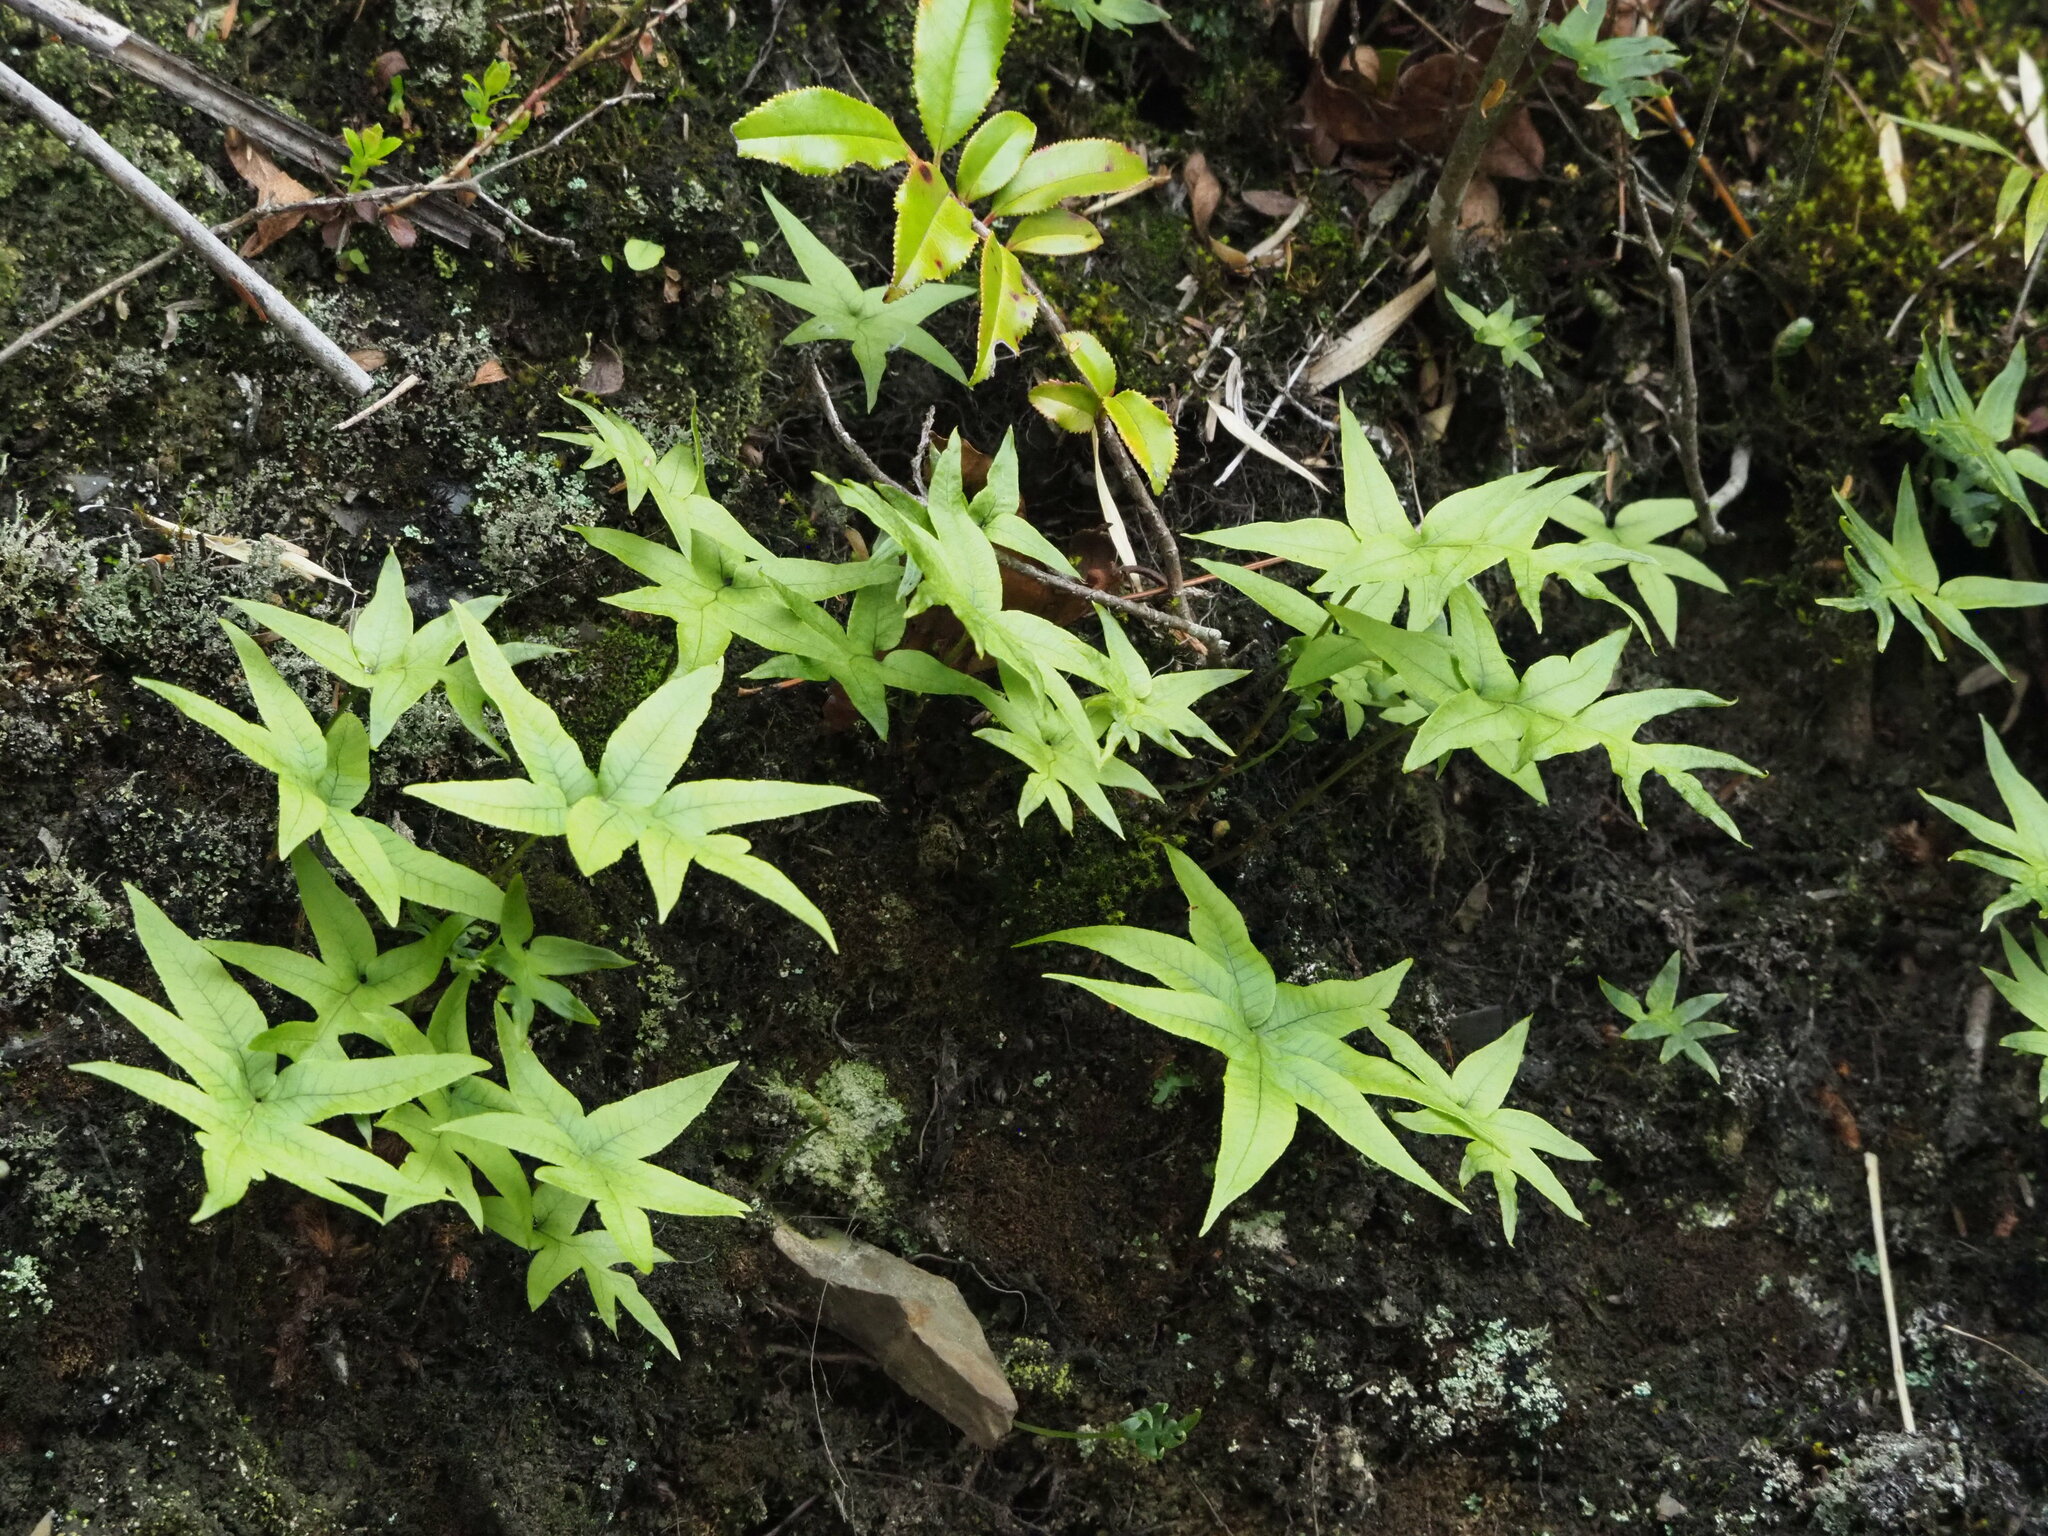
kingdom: Plantae
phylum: Tracheophyta
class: Polypodiopsida
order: Polypodiales
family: Polypodiaceae
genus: Selliguea
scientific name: Selliguea quasidivaricata
